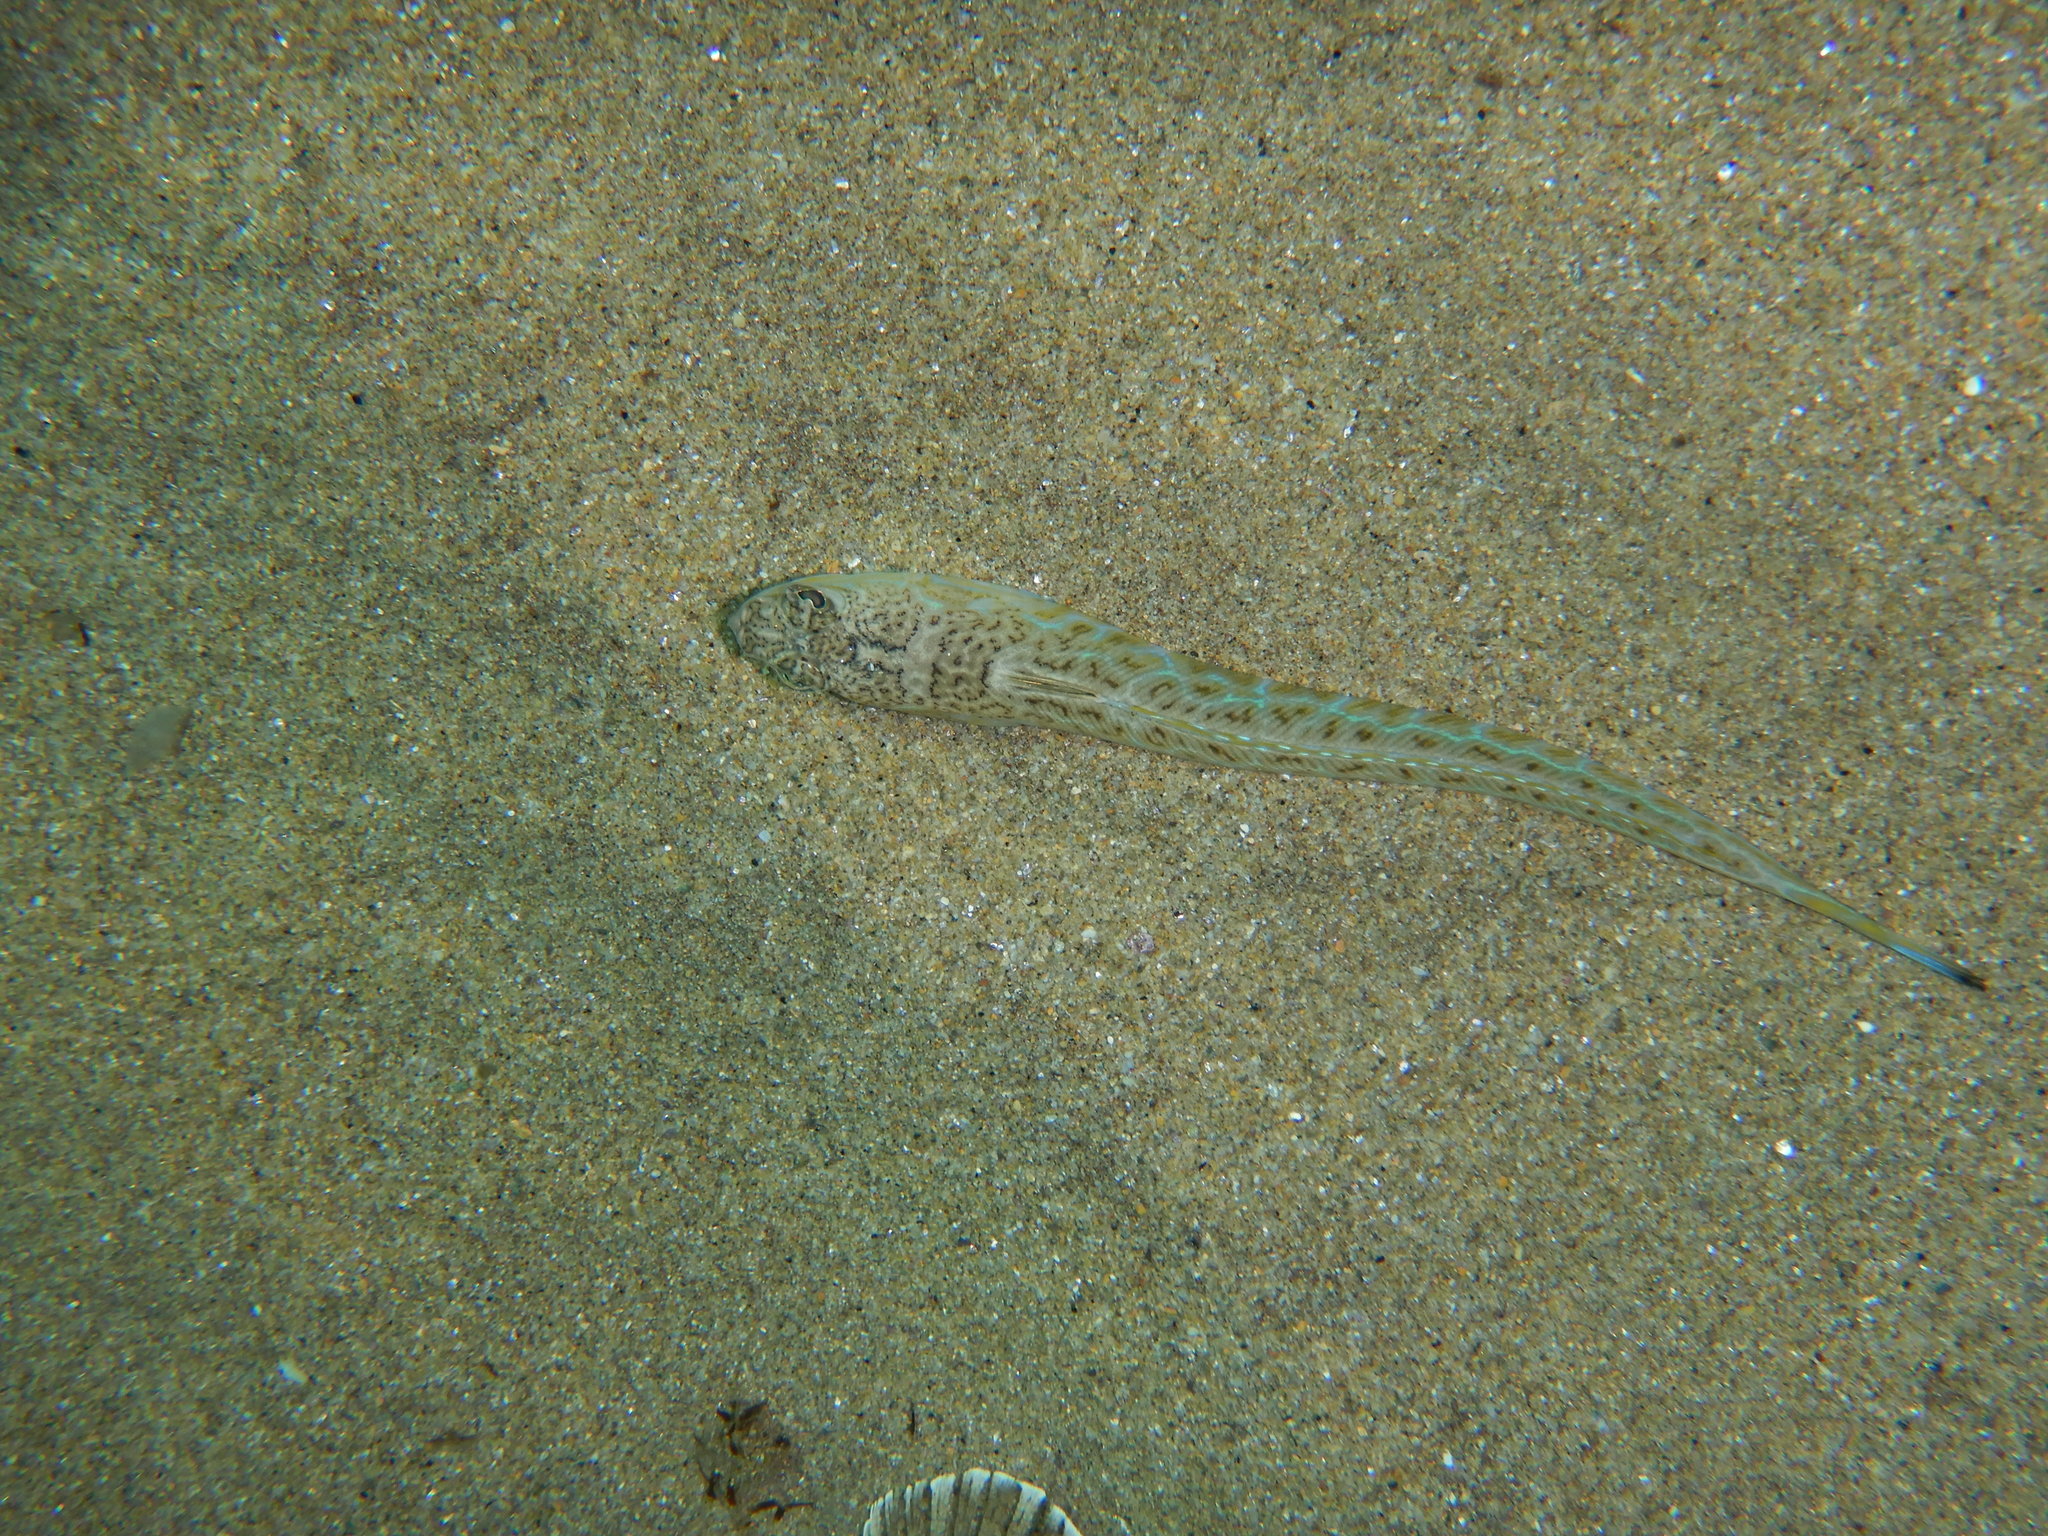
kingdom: Animalia
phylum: Chordata
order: Perciformes
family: Trachinidae
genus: Trachinus
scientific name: Trachinus draco
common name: Greater weever
